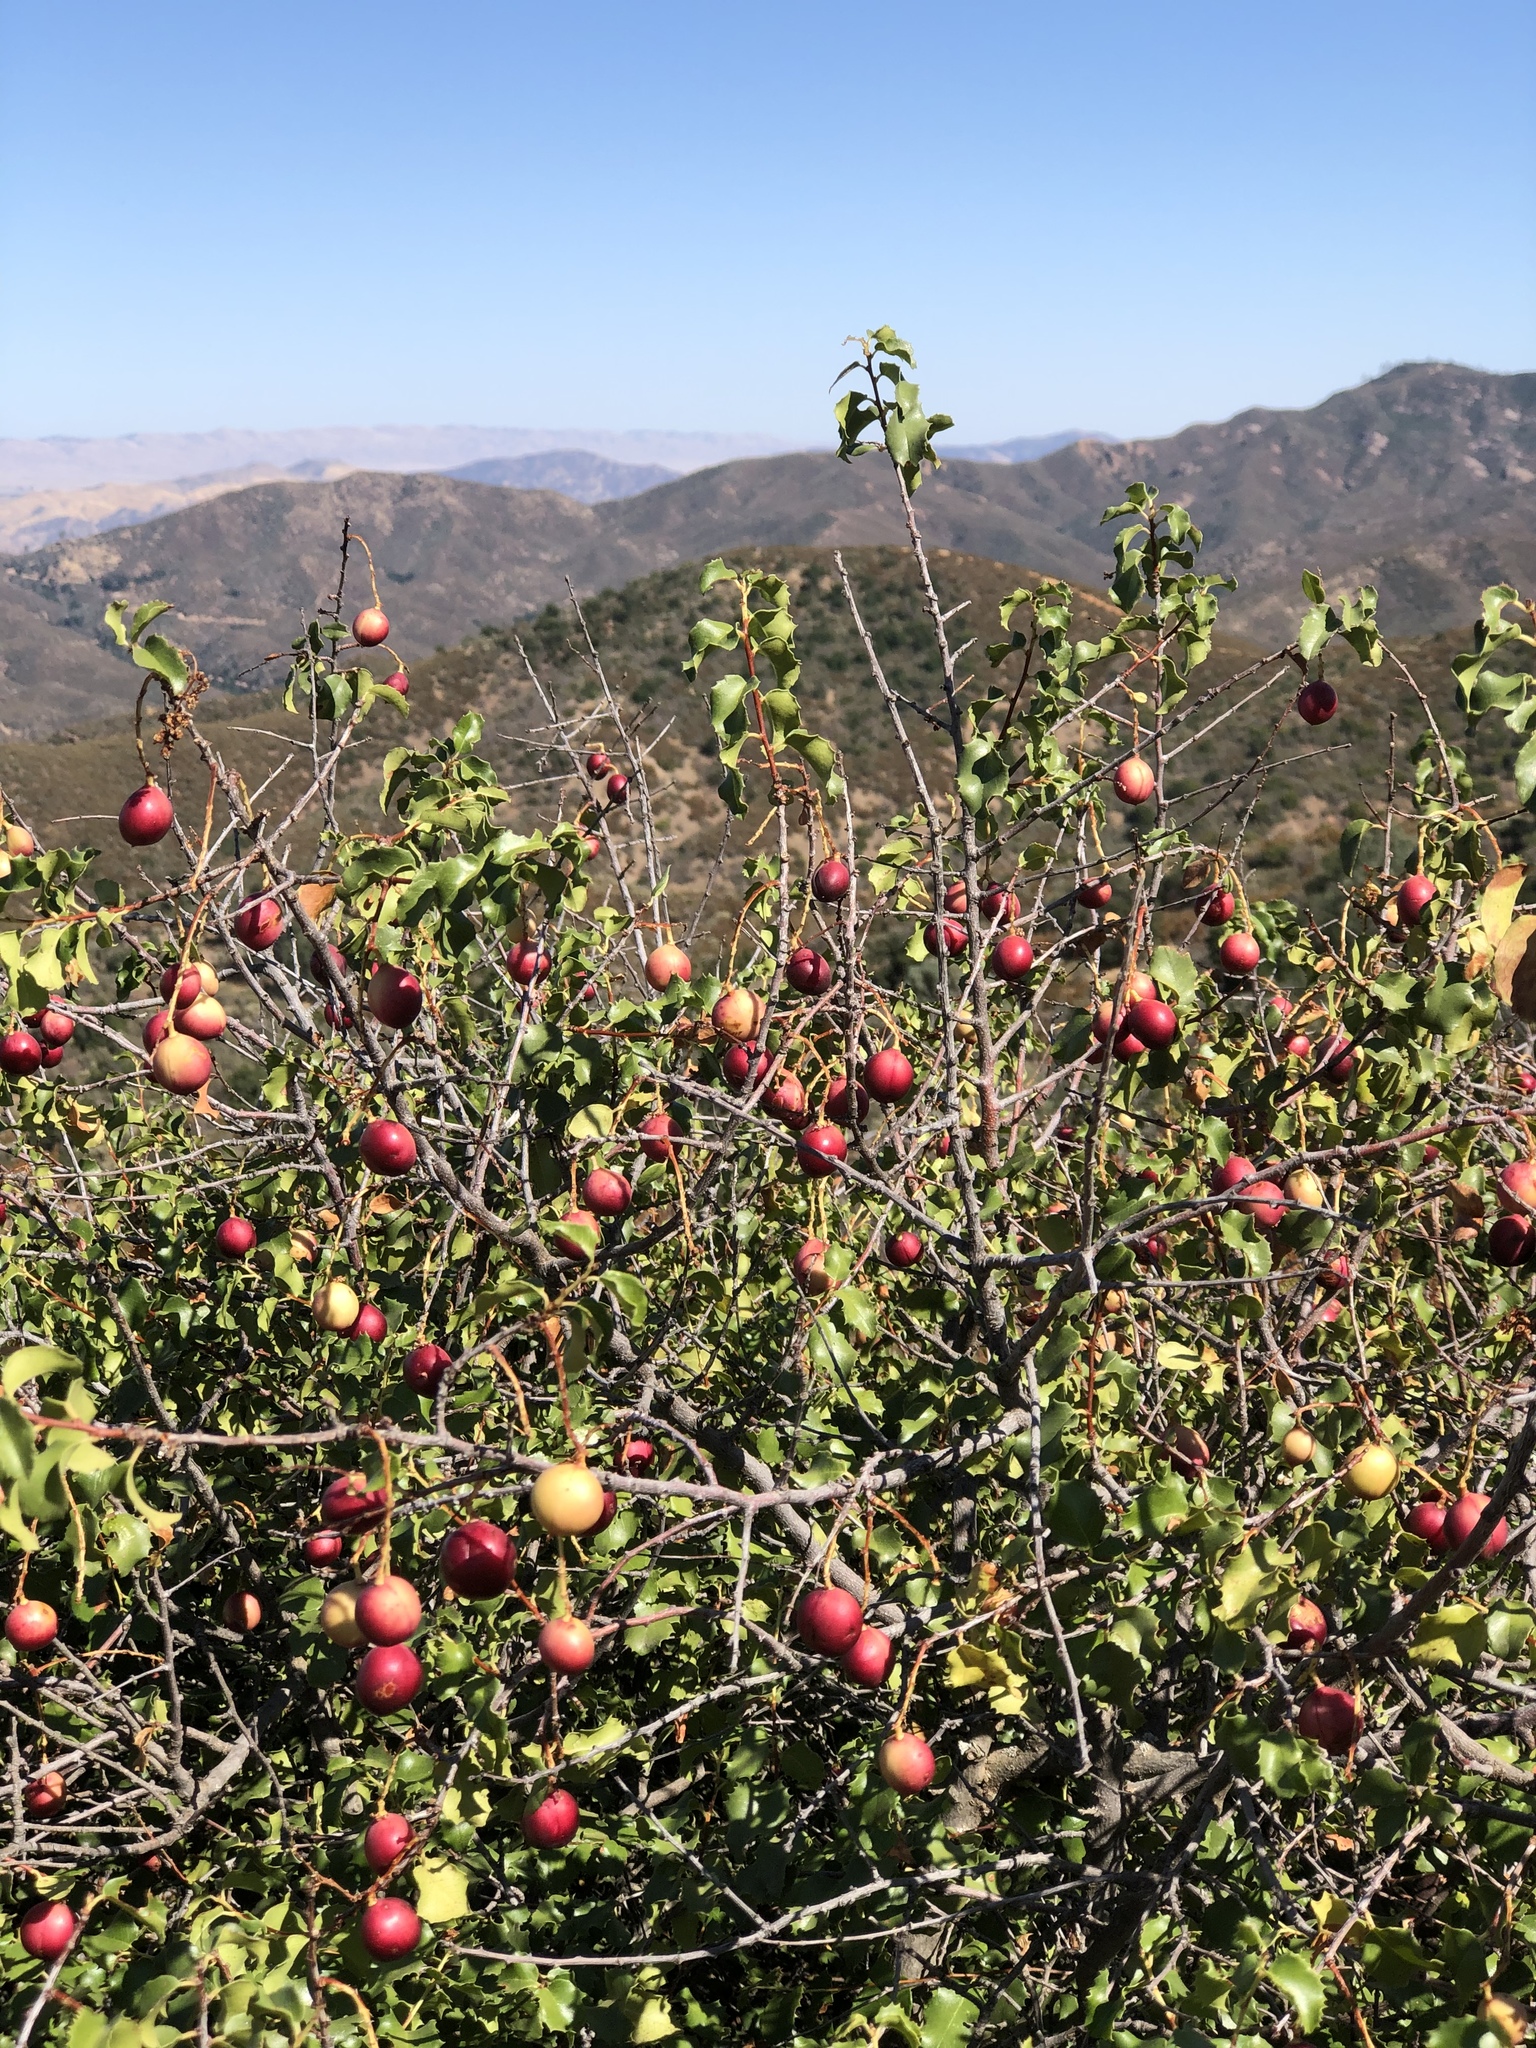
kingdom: Plantae
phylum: Tracheophyta
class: Magnoliopsida
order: Rosales
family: Rosaceae
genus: Prunus
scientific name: Prunus ilicifolia
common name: Hollyleaf cherry
